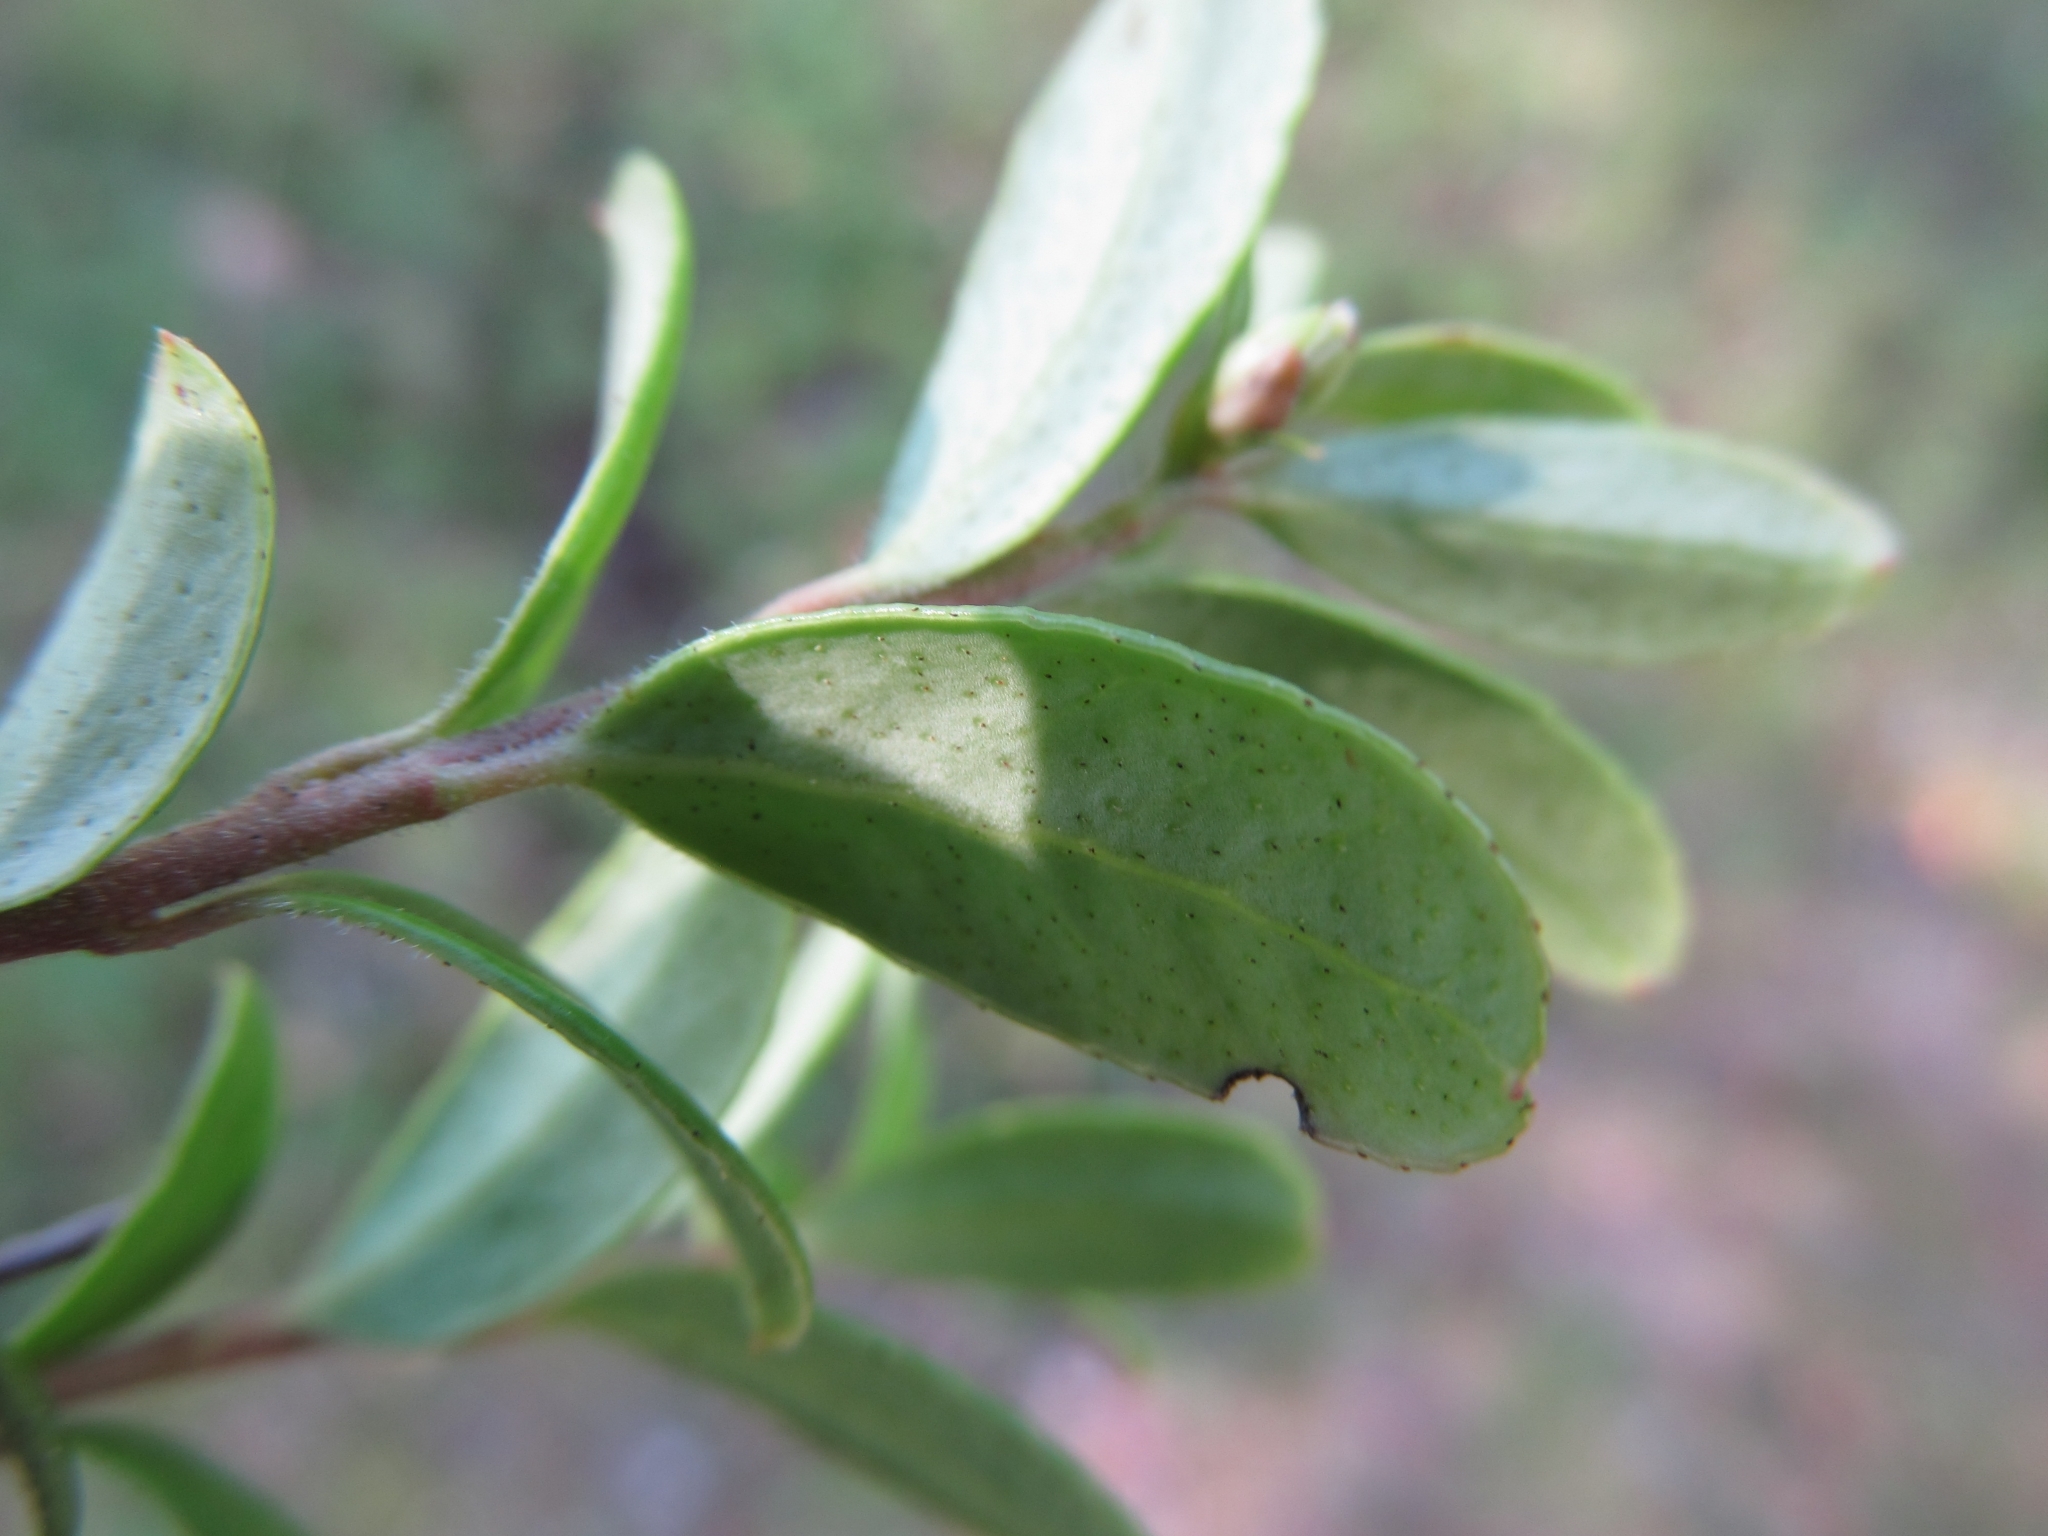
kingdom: Plantae
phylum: Tracheophyta
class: Magnoliopsida
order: Ericales
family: Ericaceae
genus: Vaccinium
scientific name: Vaccinium vitis-idaea
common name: Cowberry
